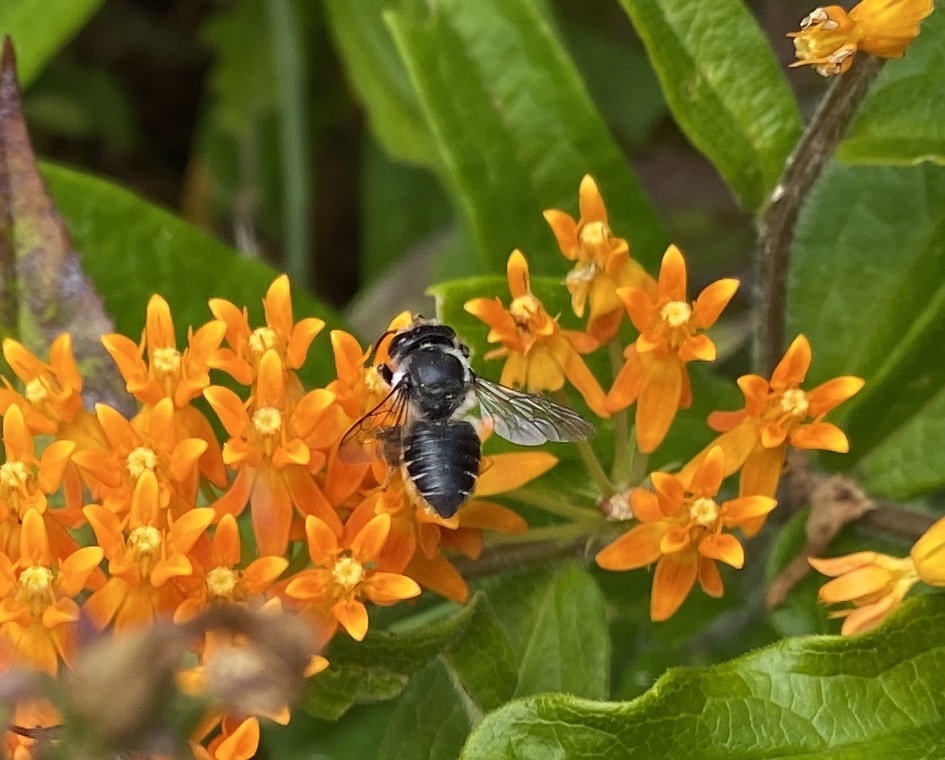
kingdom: Animalia
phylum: Arthropoda
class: Insecta
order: Hymenoptera
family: Megachilidae
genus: Megachile
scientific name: Megachile mendica
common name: Flat-tailed leafcutter
